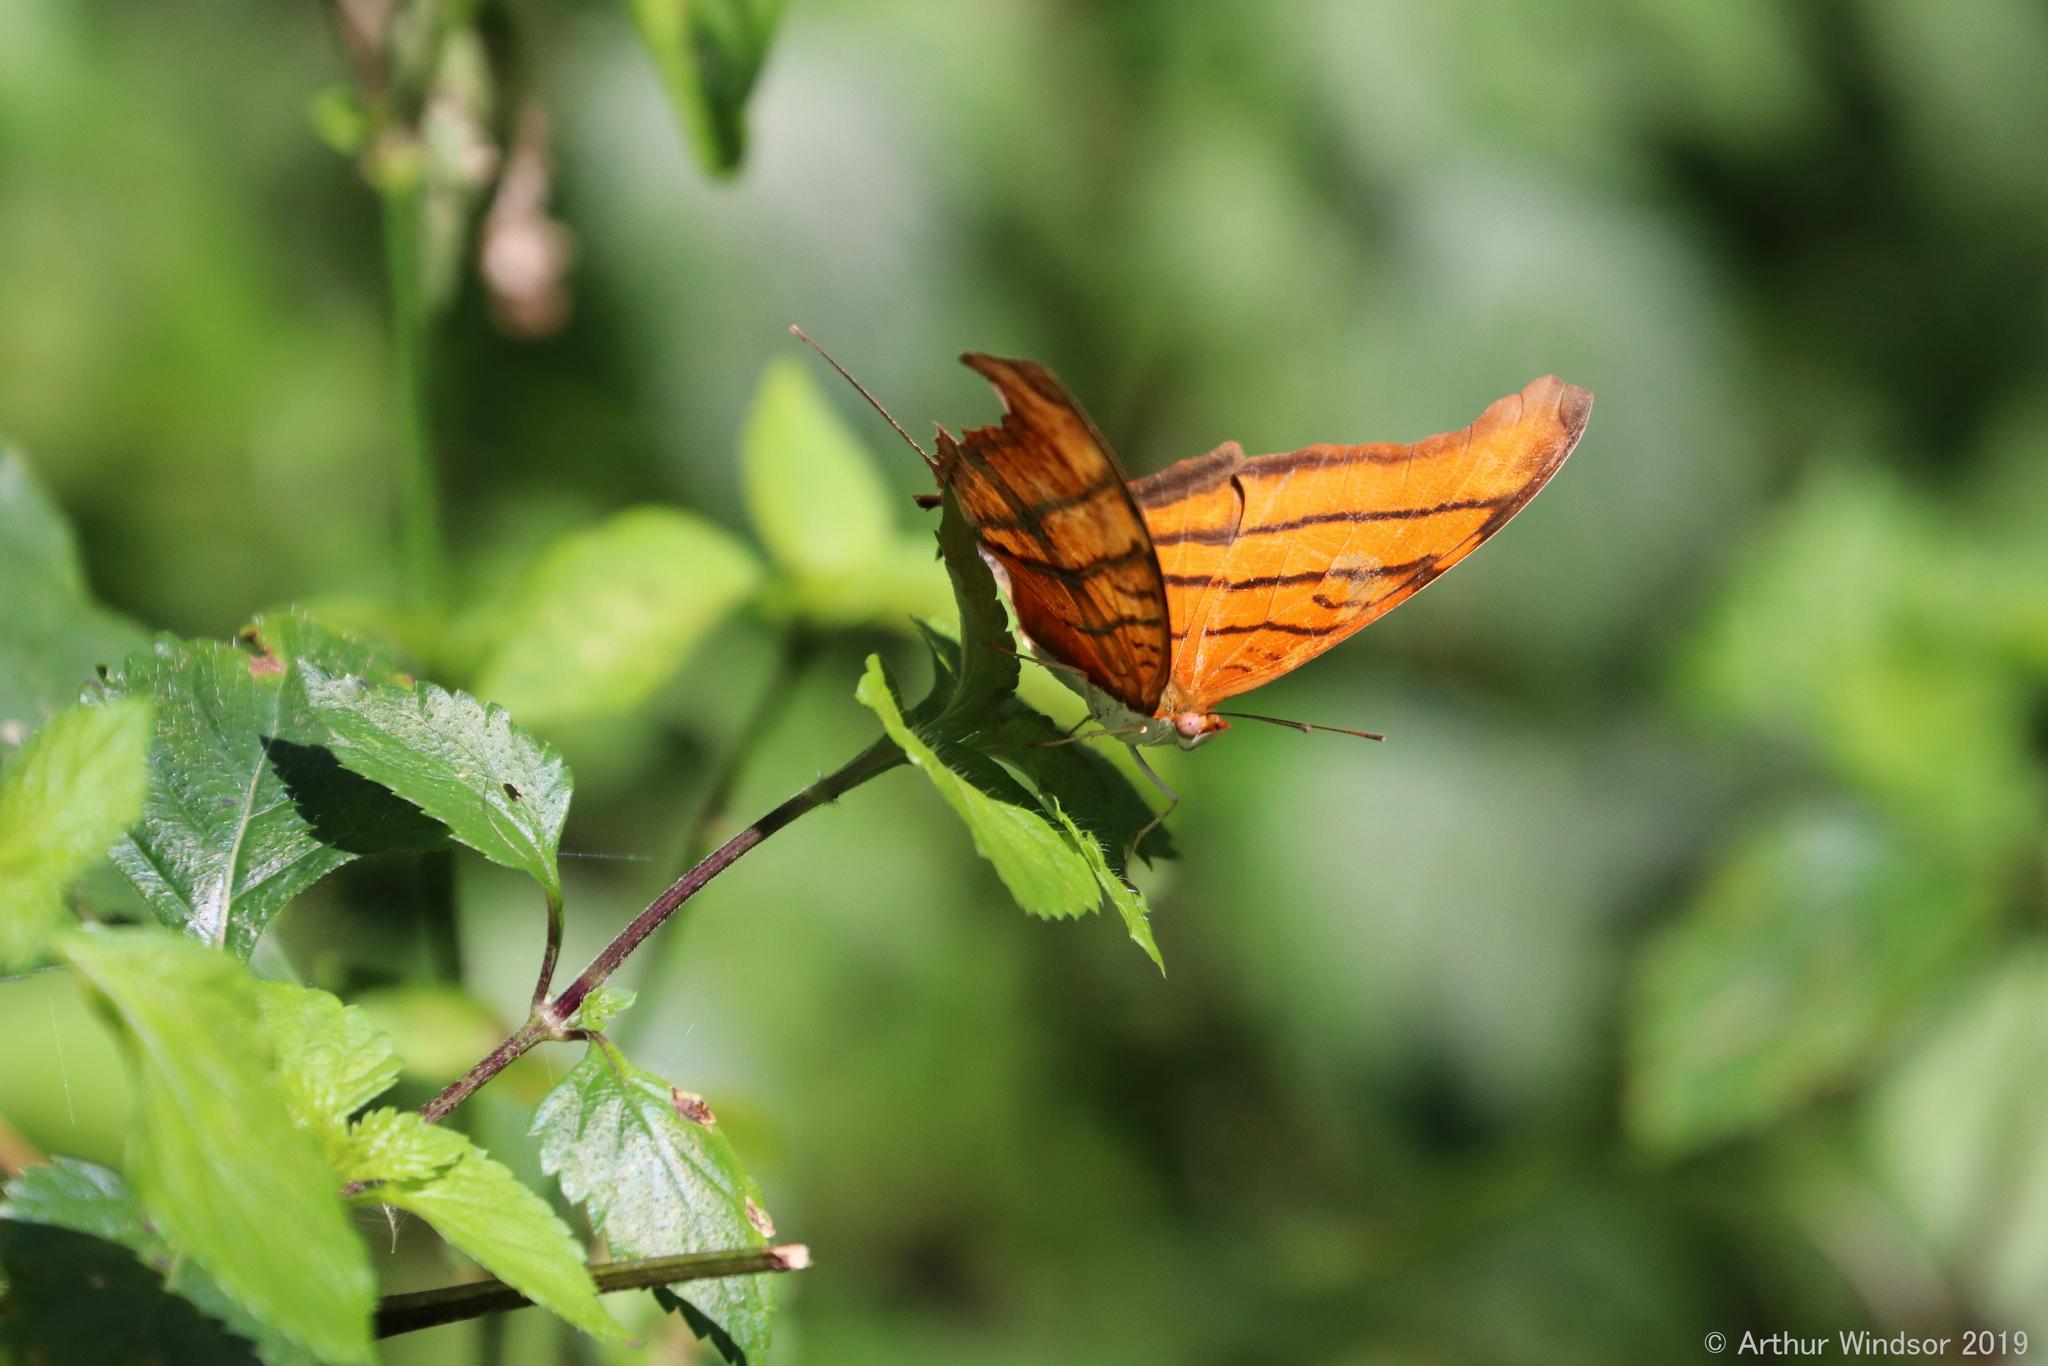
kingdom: Animalia
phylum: Arthropoda
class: Insecta
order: Lepidoptera
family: Nymphalidae
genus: Marpesia
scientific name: Marpesia petreus
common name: Red dagger wing
